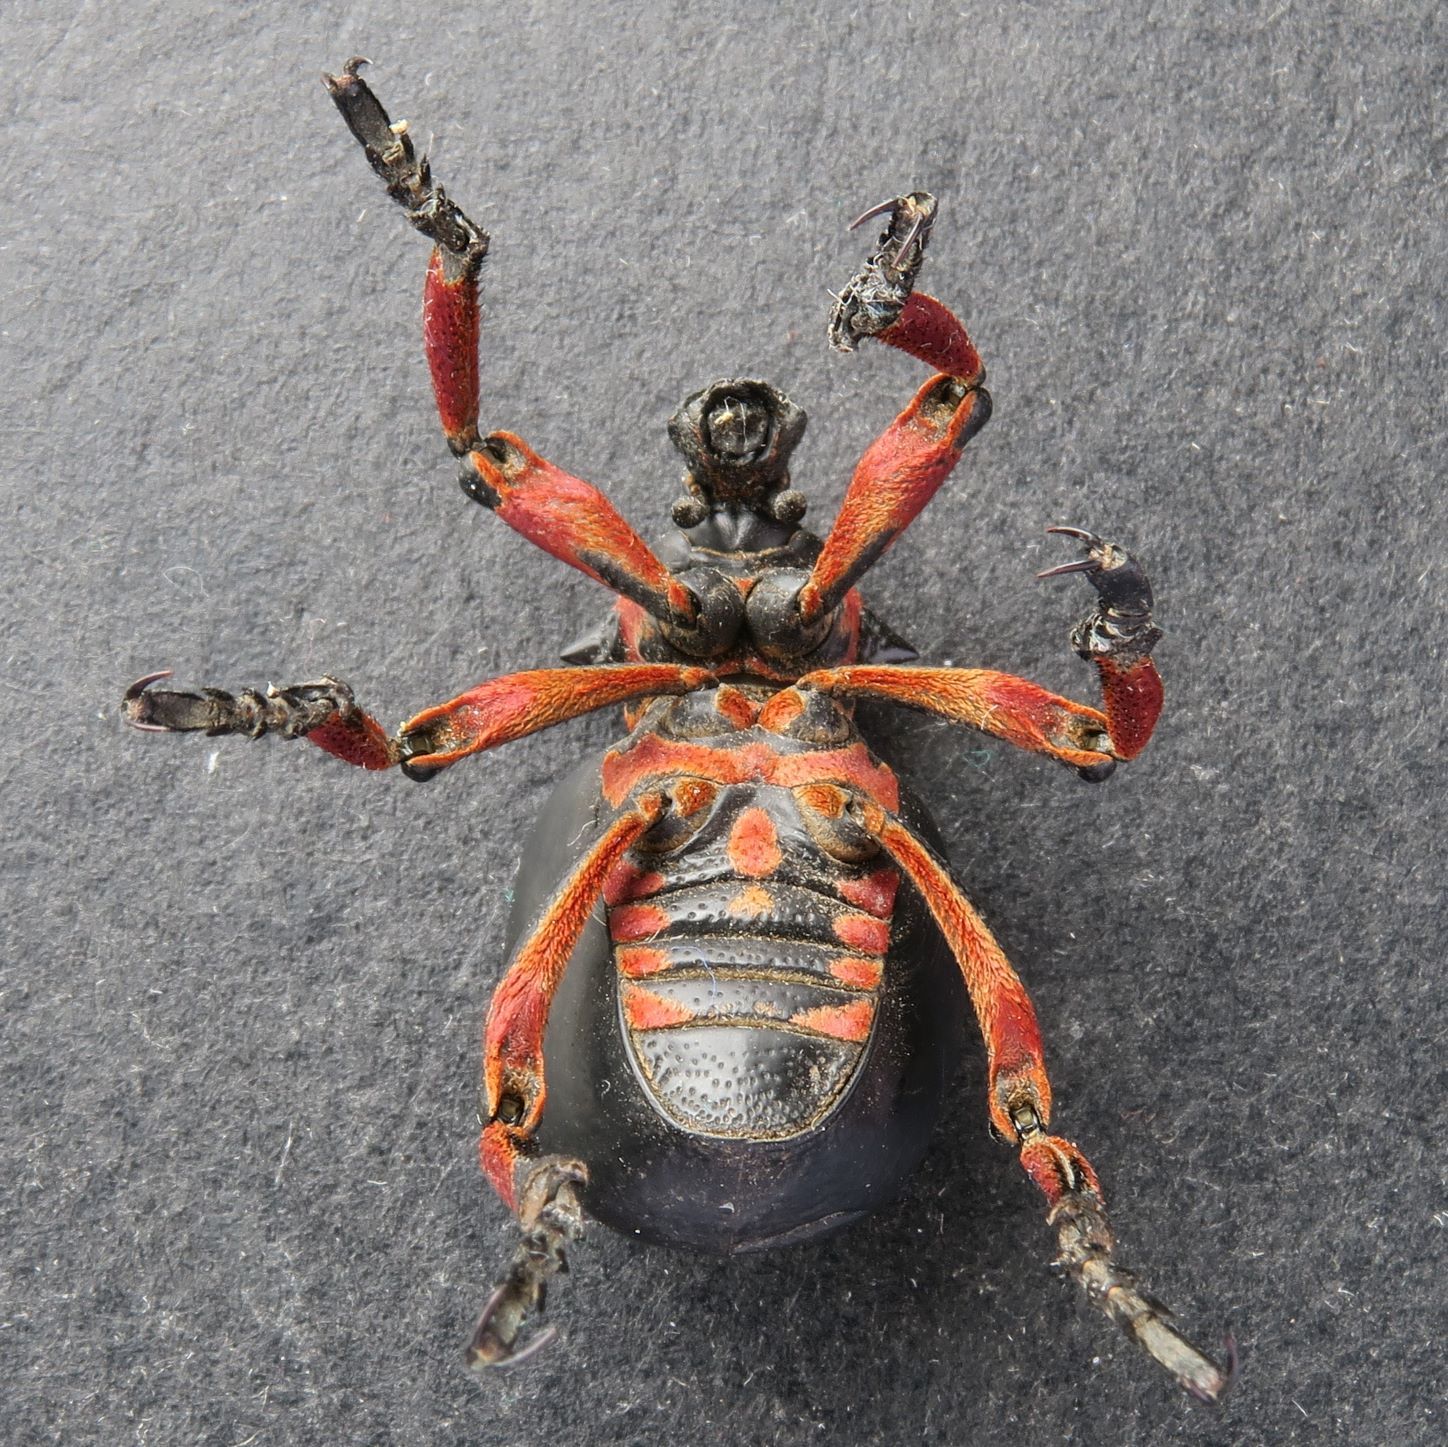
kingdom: Animalia
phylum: Arthropoda
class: Insecta
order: Coleoptera
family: Brachyceridae
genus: Brachycerus
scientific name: Brachycerus globosus
